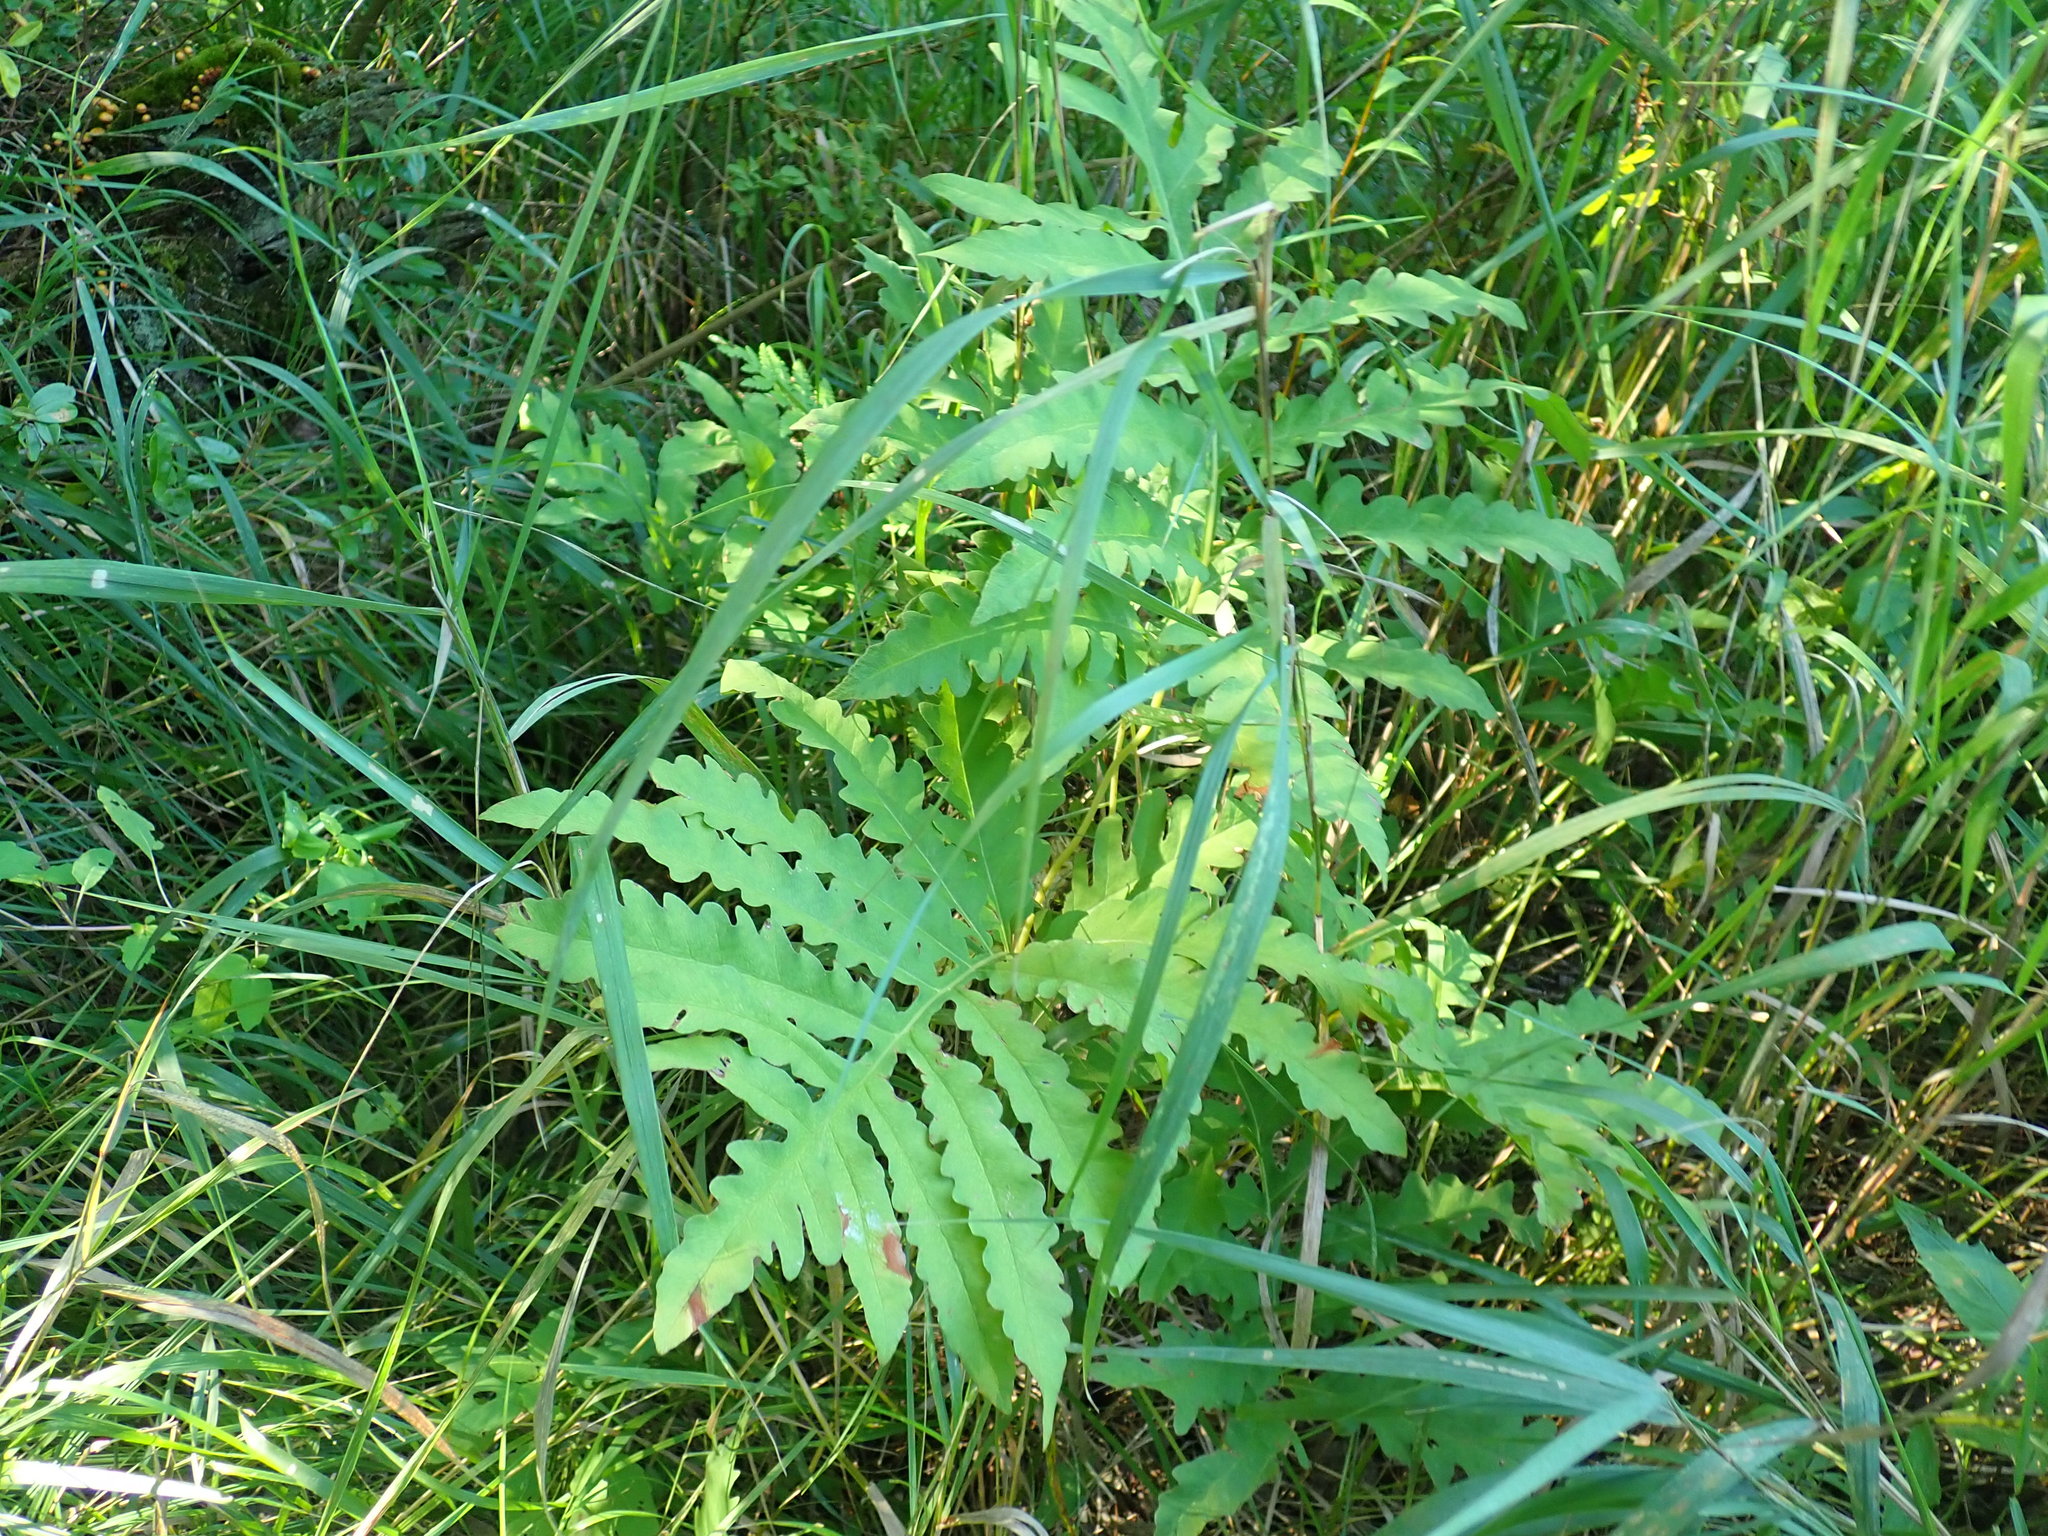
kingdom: Plantae
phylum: Tracheophyta
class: Polypodiopsida
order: Polypodiales
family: Onocleaceae
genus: Onoclea
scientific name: Onoclea sensibilis
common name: Sensitive fern
